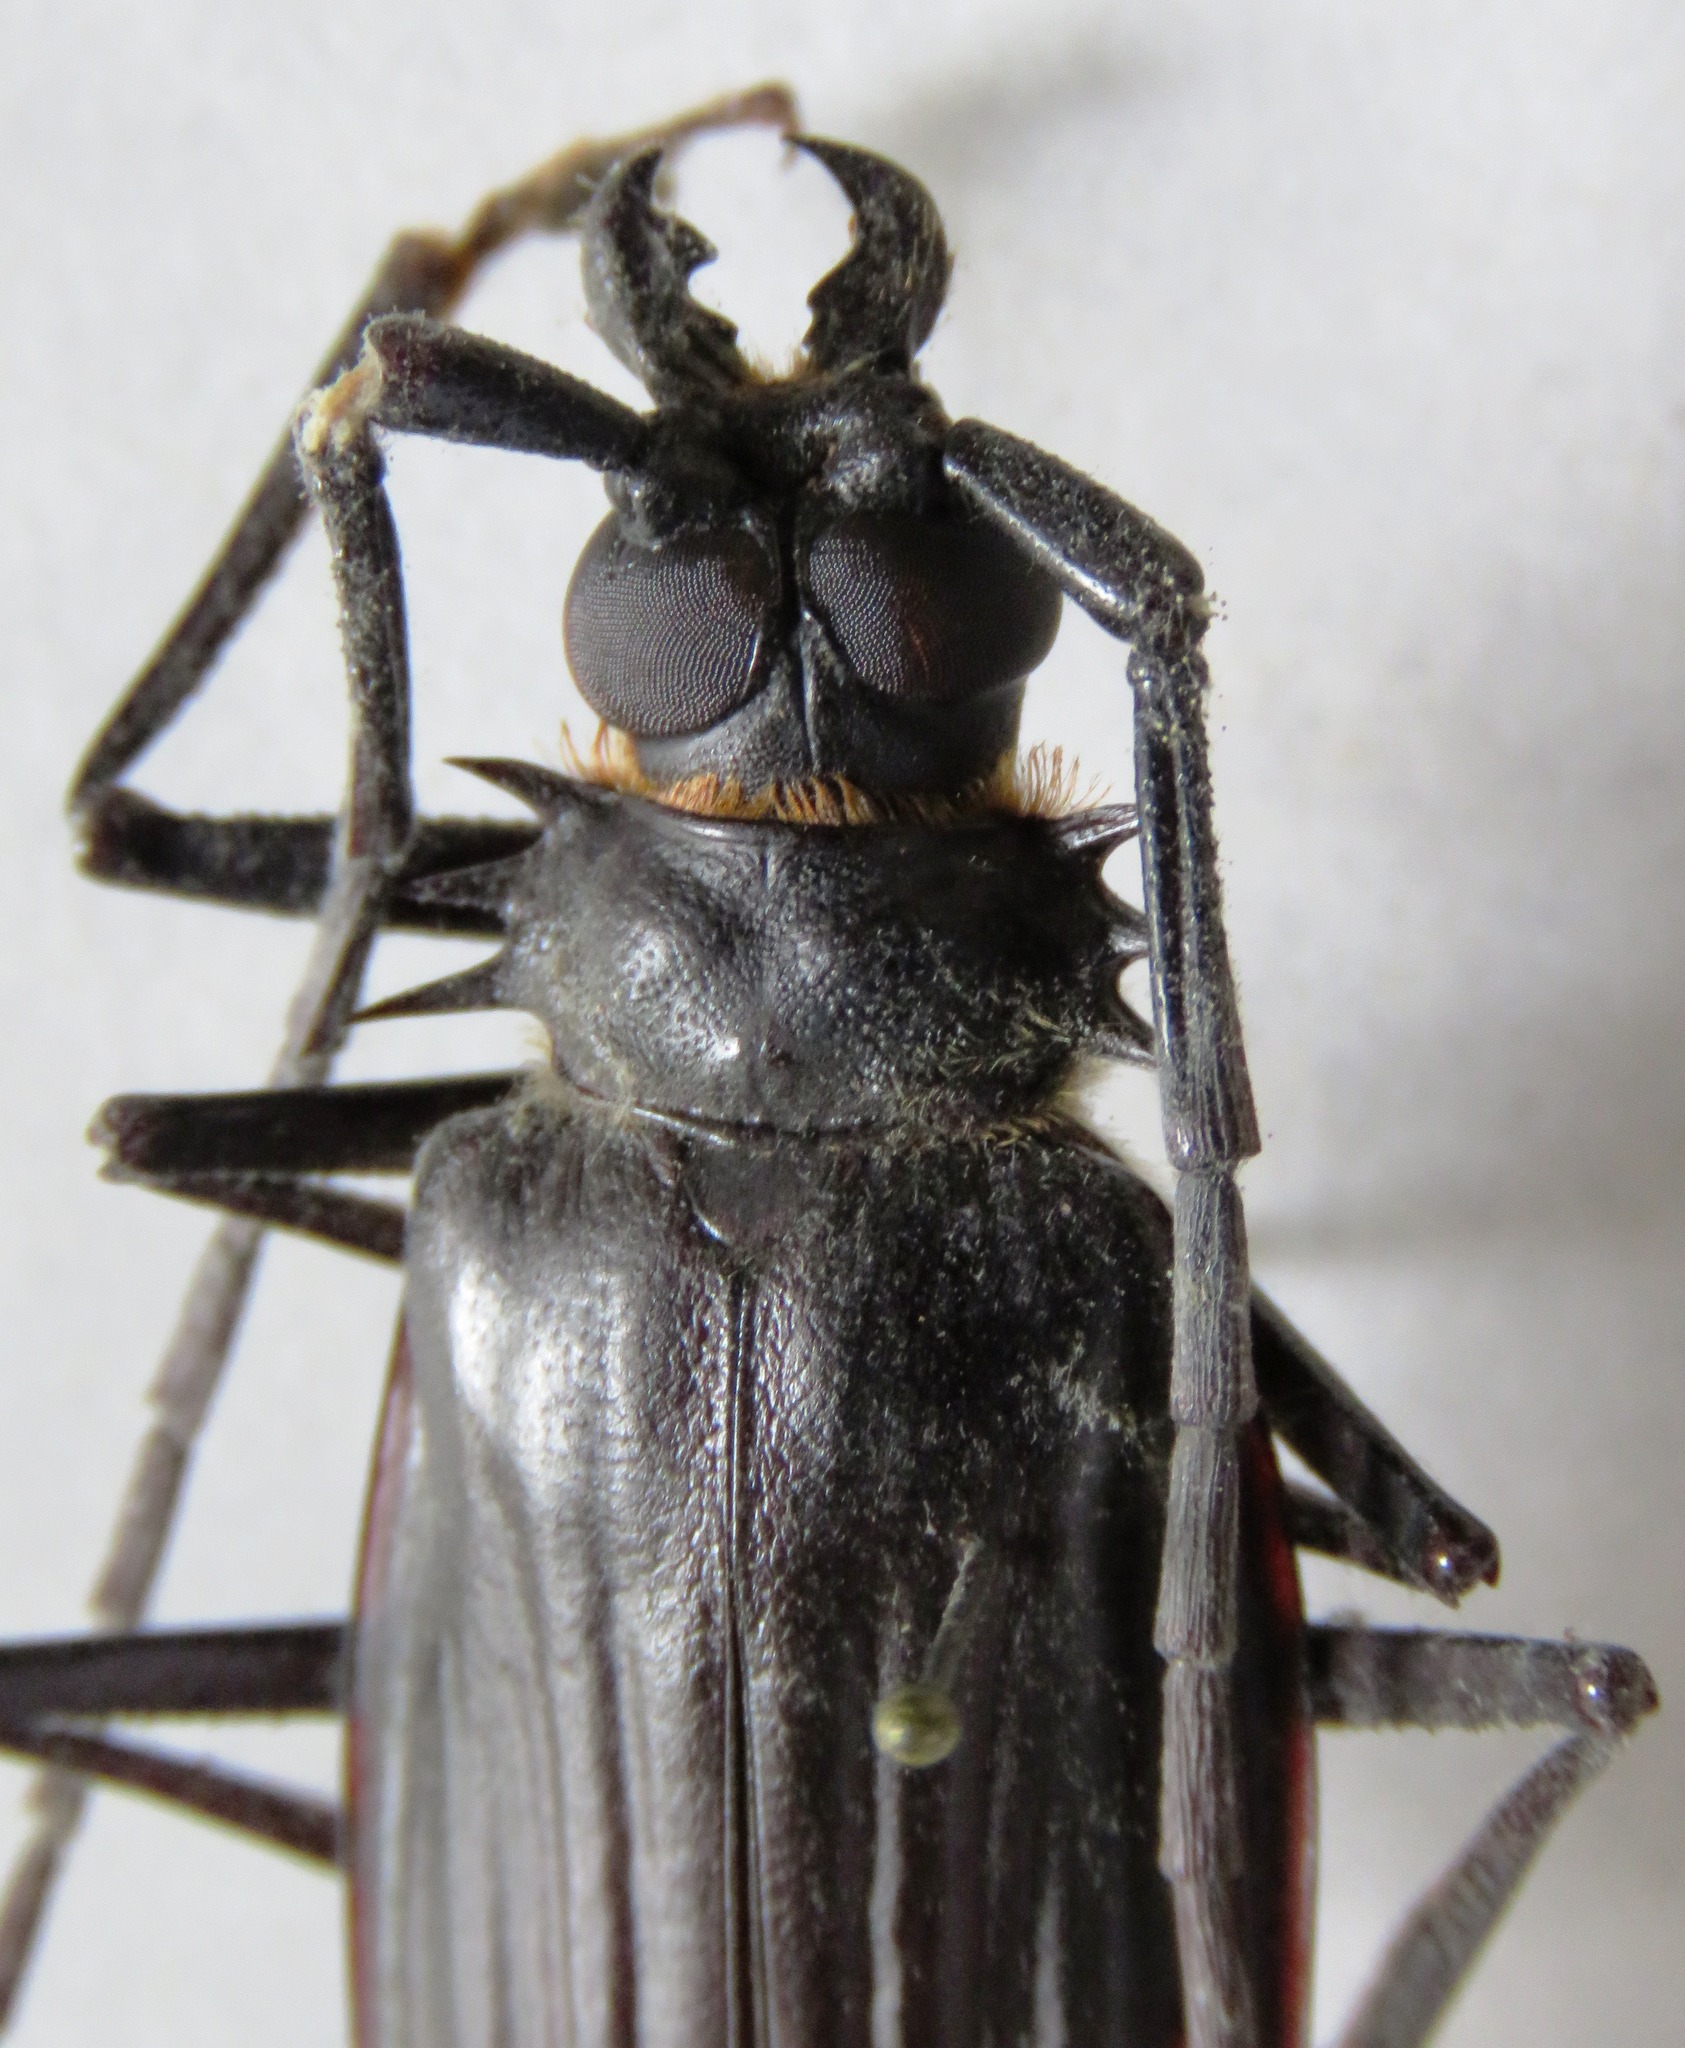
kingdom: Animalia
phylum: Arthropoda
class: Insecta
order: Coleoptera
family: Cerambycidae
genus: Derobrachus
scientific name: Derobrachus sulcicornis
